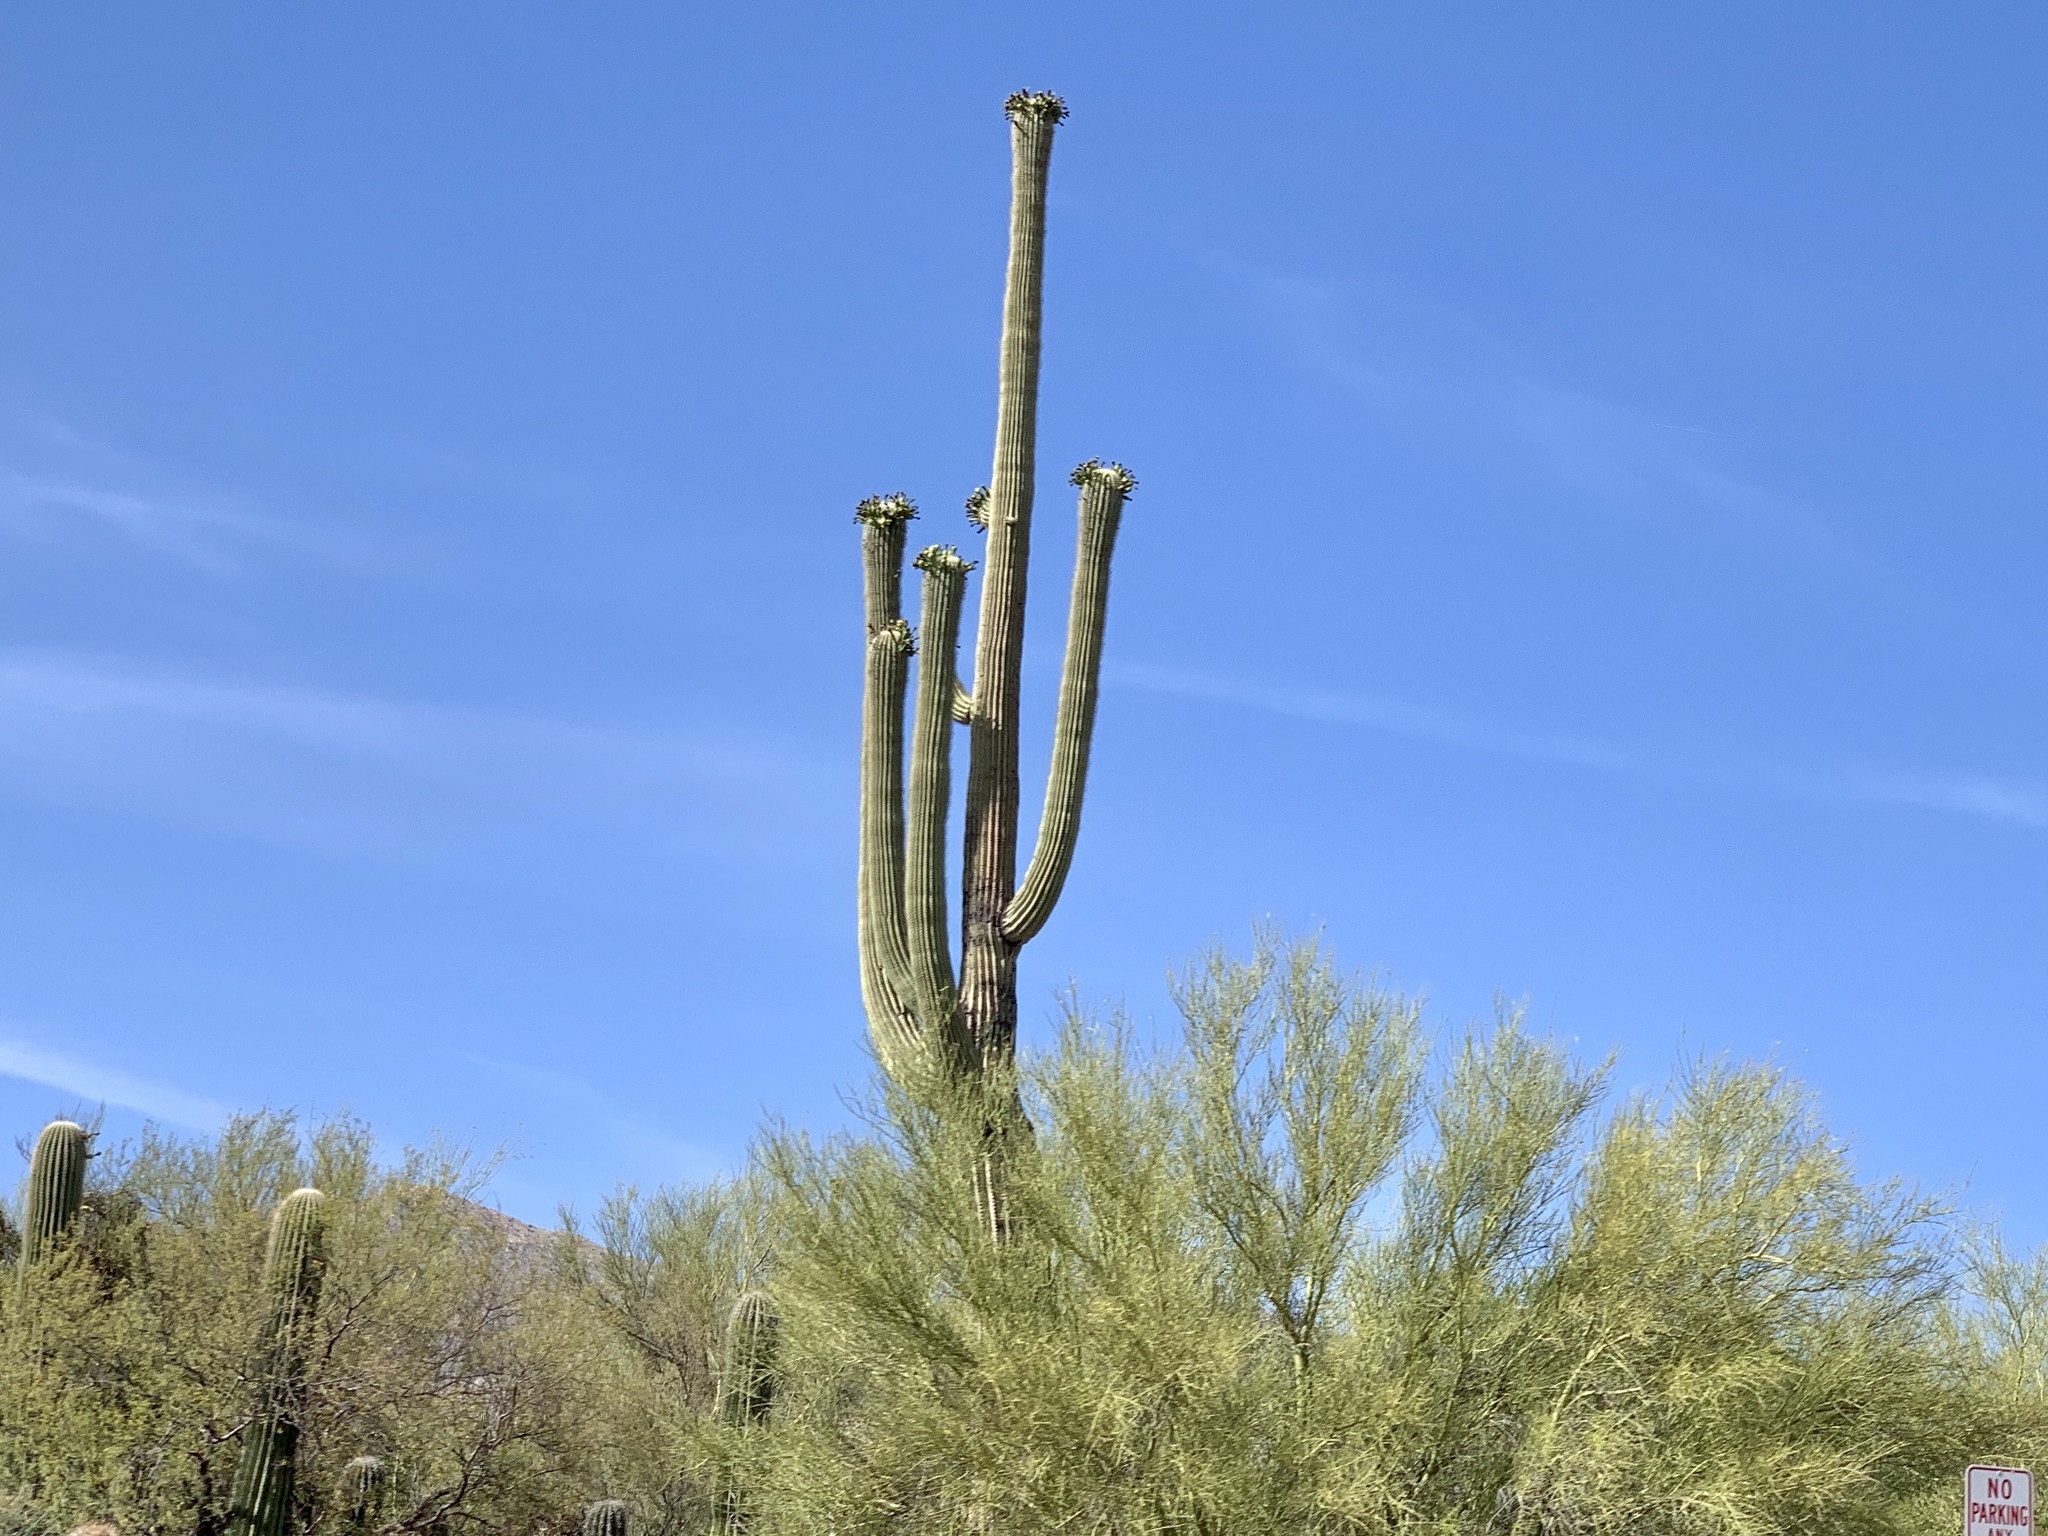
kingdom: Plantae
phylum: Tracheophyta
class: Magnoliopsida
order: Caryophyllales
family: Cactaceae
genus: Carnegiea
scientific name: Carnegiea gigantea
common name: Saguaro
